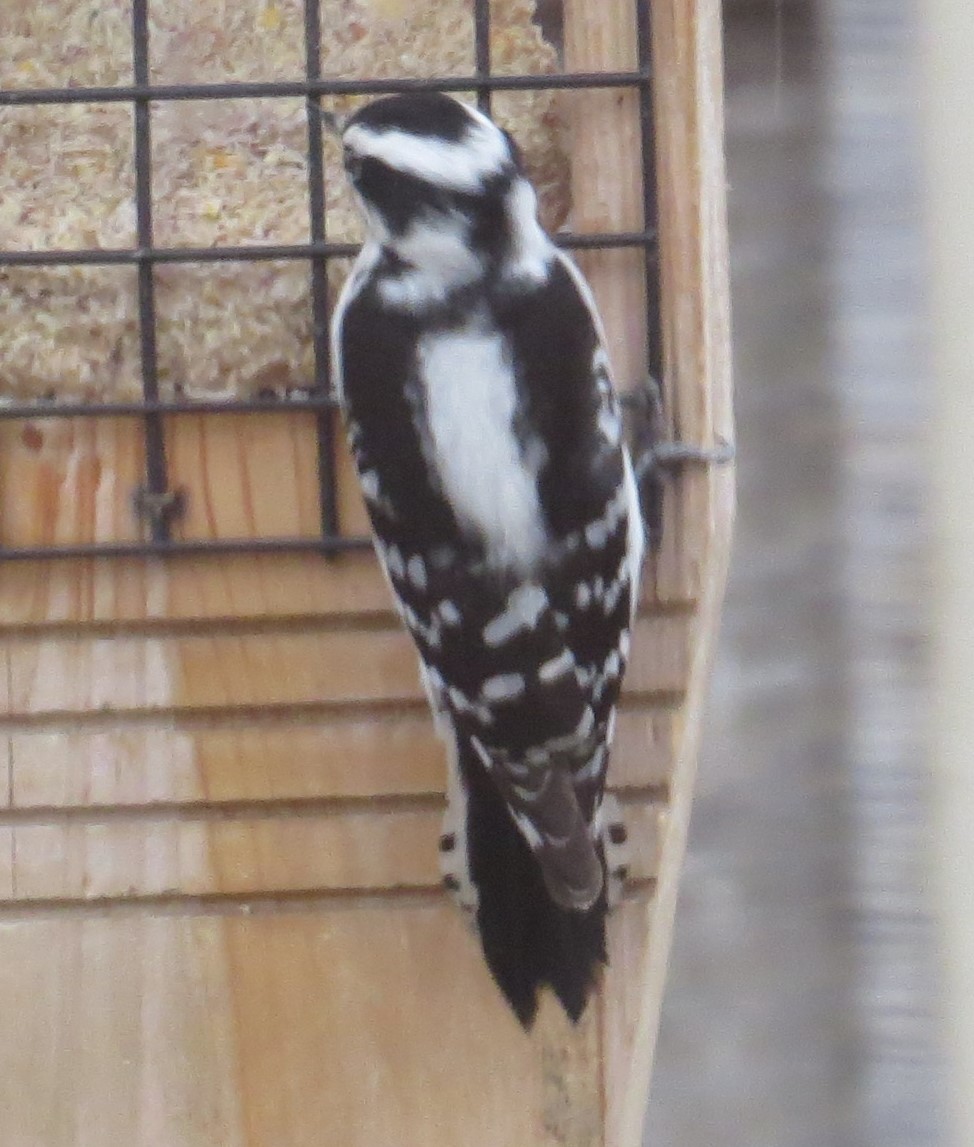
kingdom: Animalia
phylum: Chordata
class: Aves
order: Piciformes
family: Picidae
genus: Dryobates
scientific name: Dryobates pubescens
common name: Downy woodpecker
